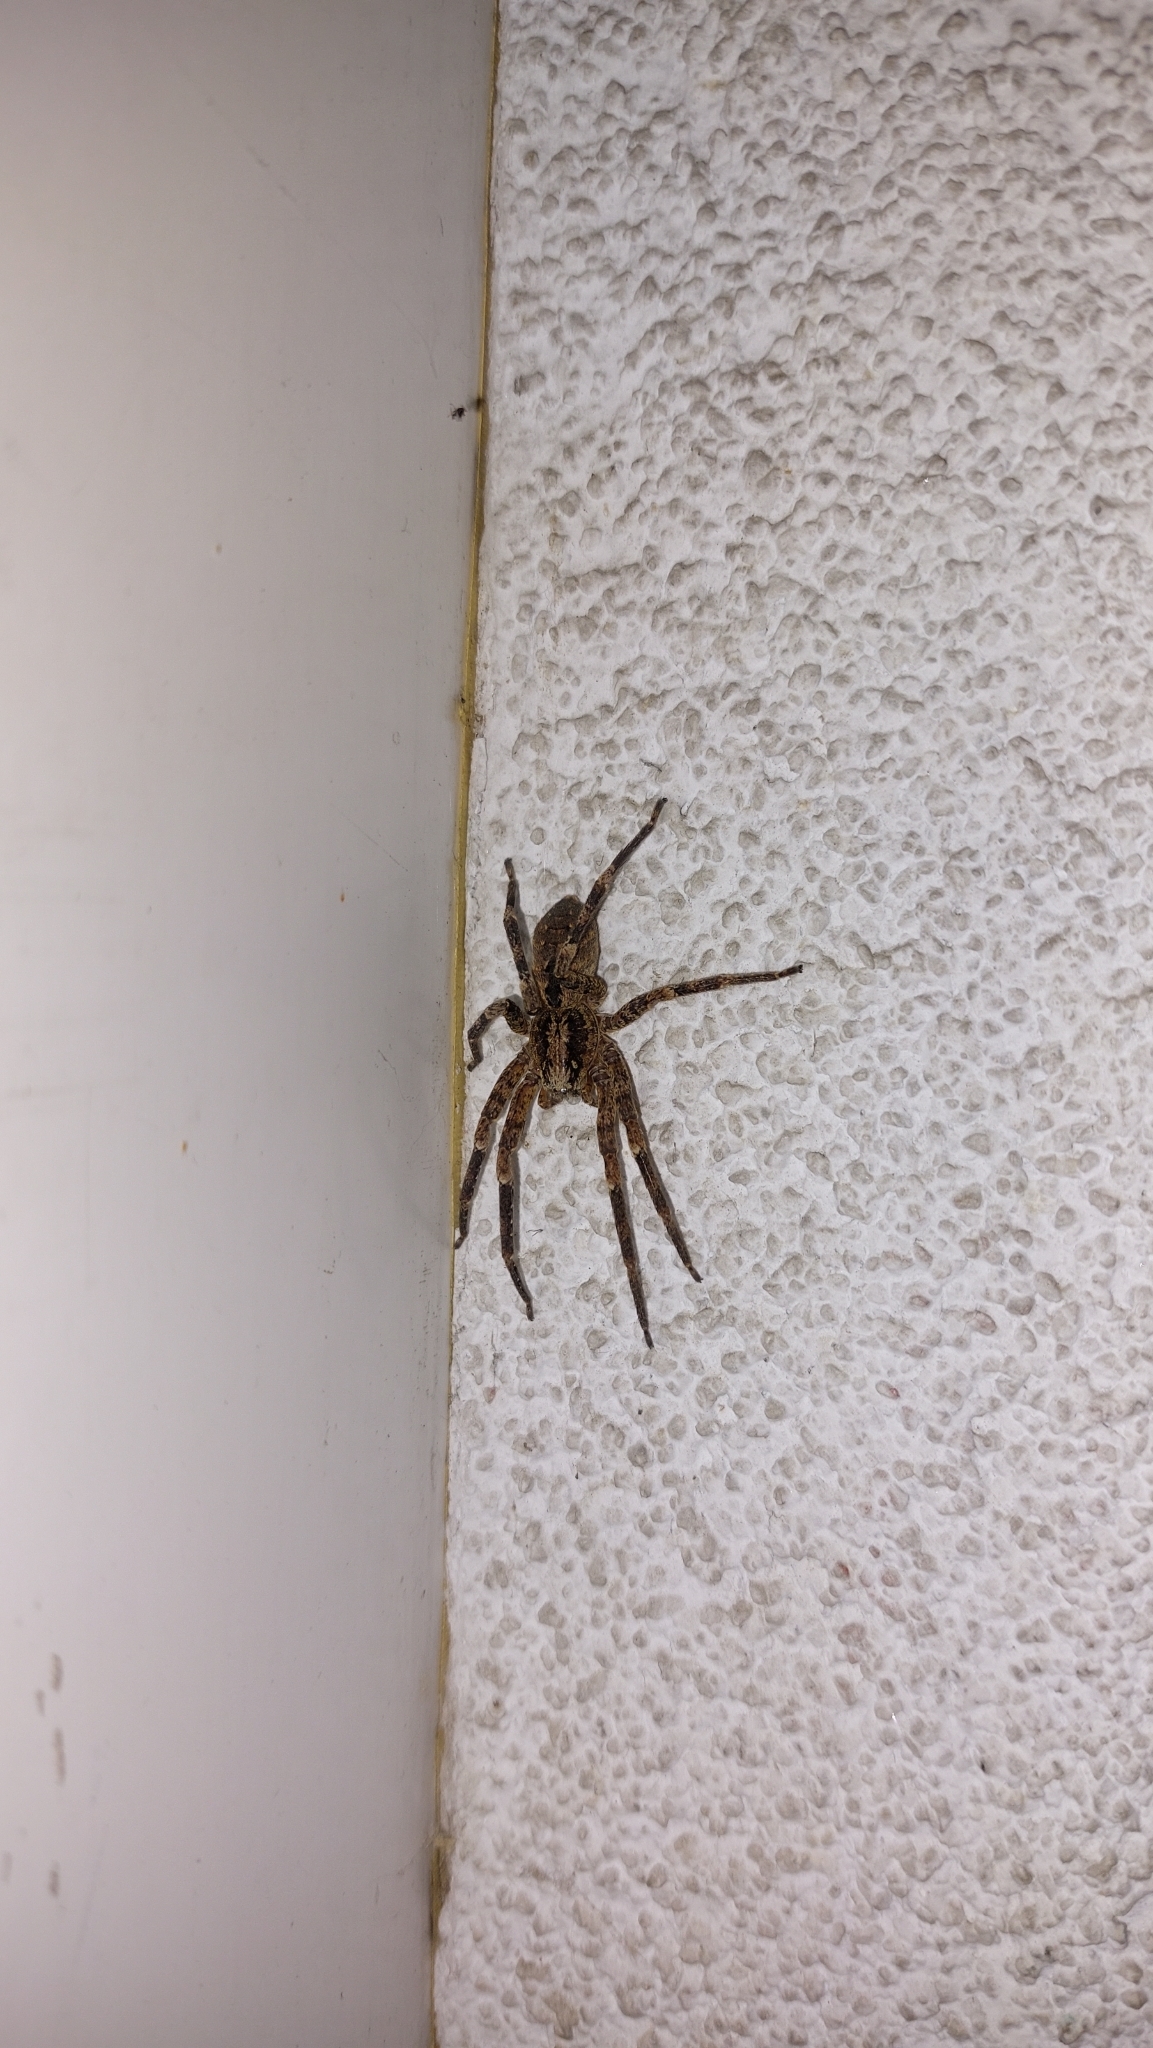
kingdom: Animalia
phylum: Arthropoda
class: Arachnida
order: Araneae
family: Zoropsidae
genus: Zoropsis
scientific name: Zoropsis spinimana
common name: Zoropsid spider
